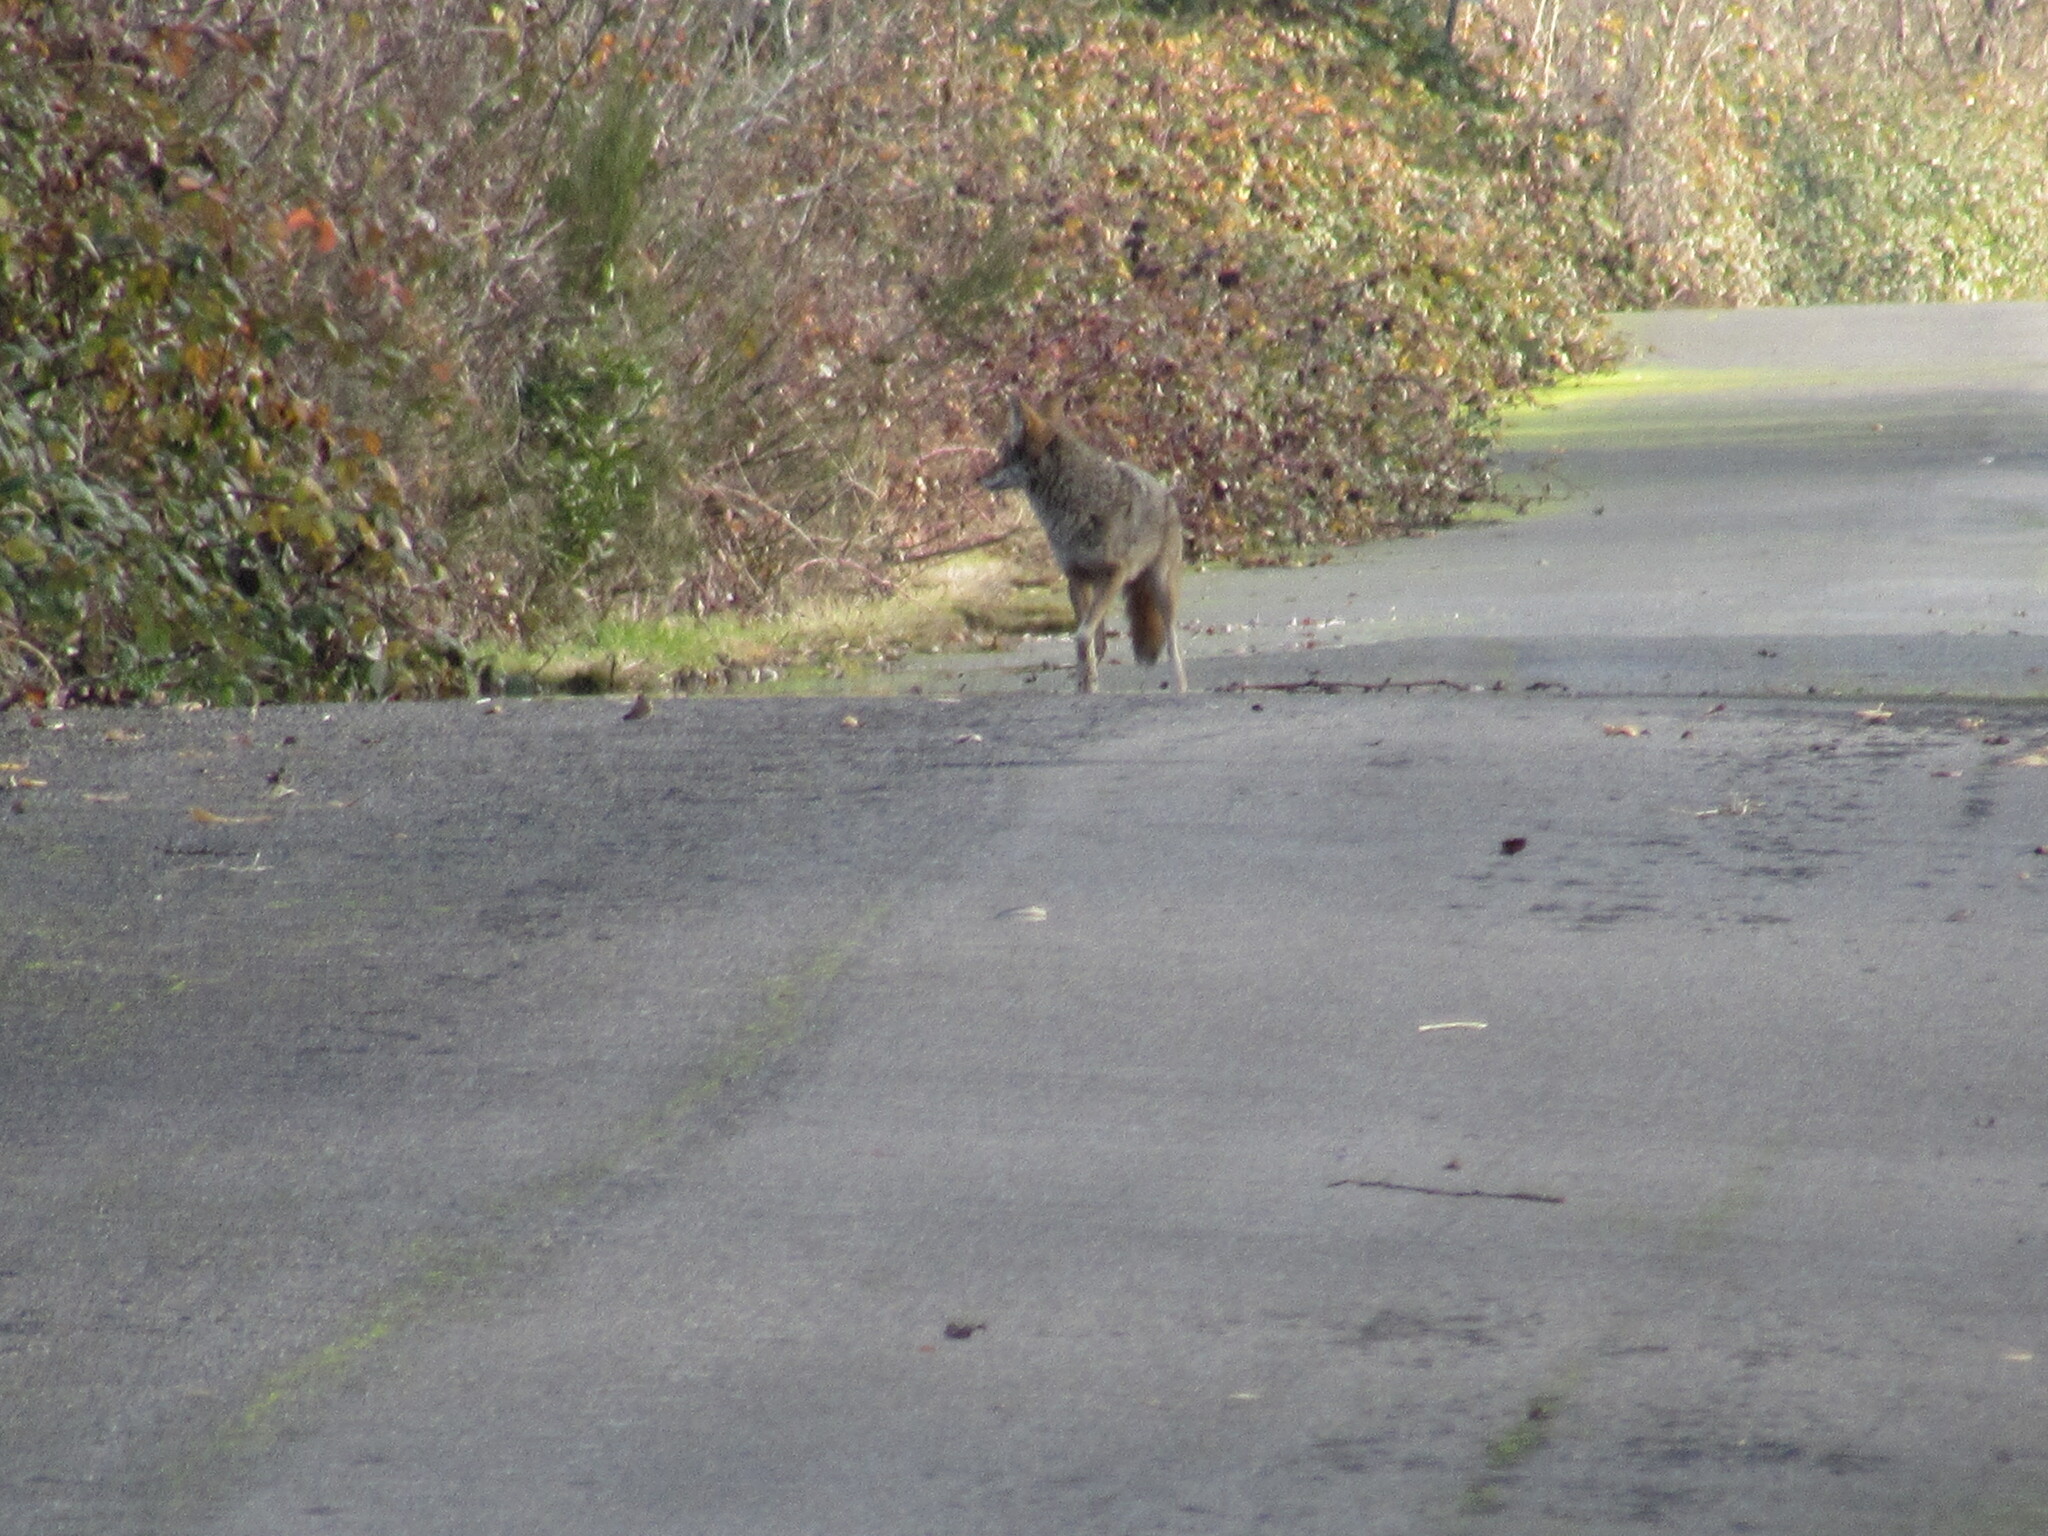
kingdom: Animalia
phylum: Chordata
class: Mammalia
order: Carnivora
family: Canidae
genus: Canis
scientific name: Canis latrans
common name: Coyote
